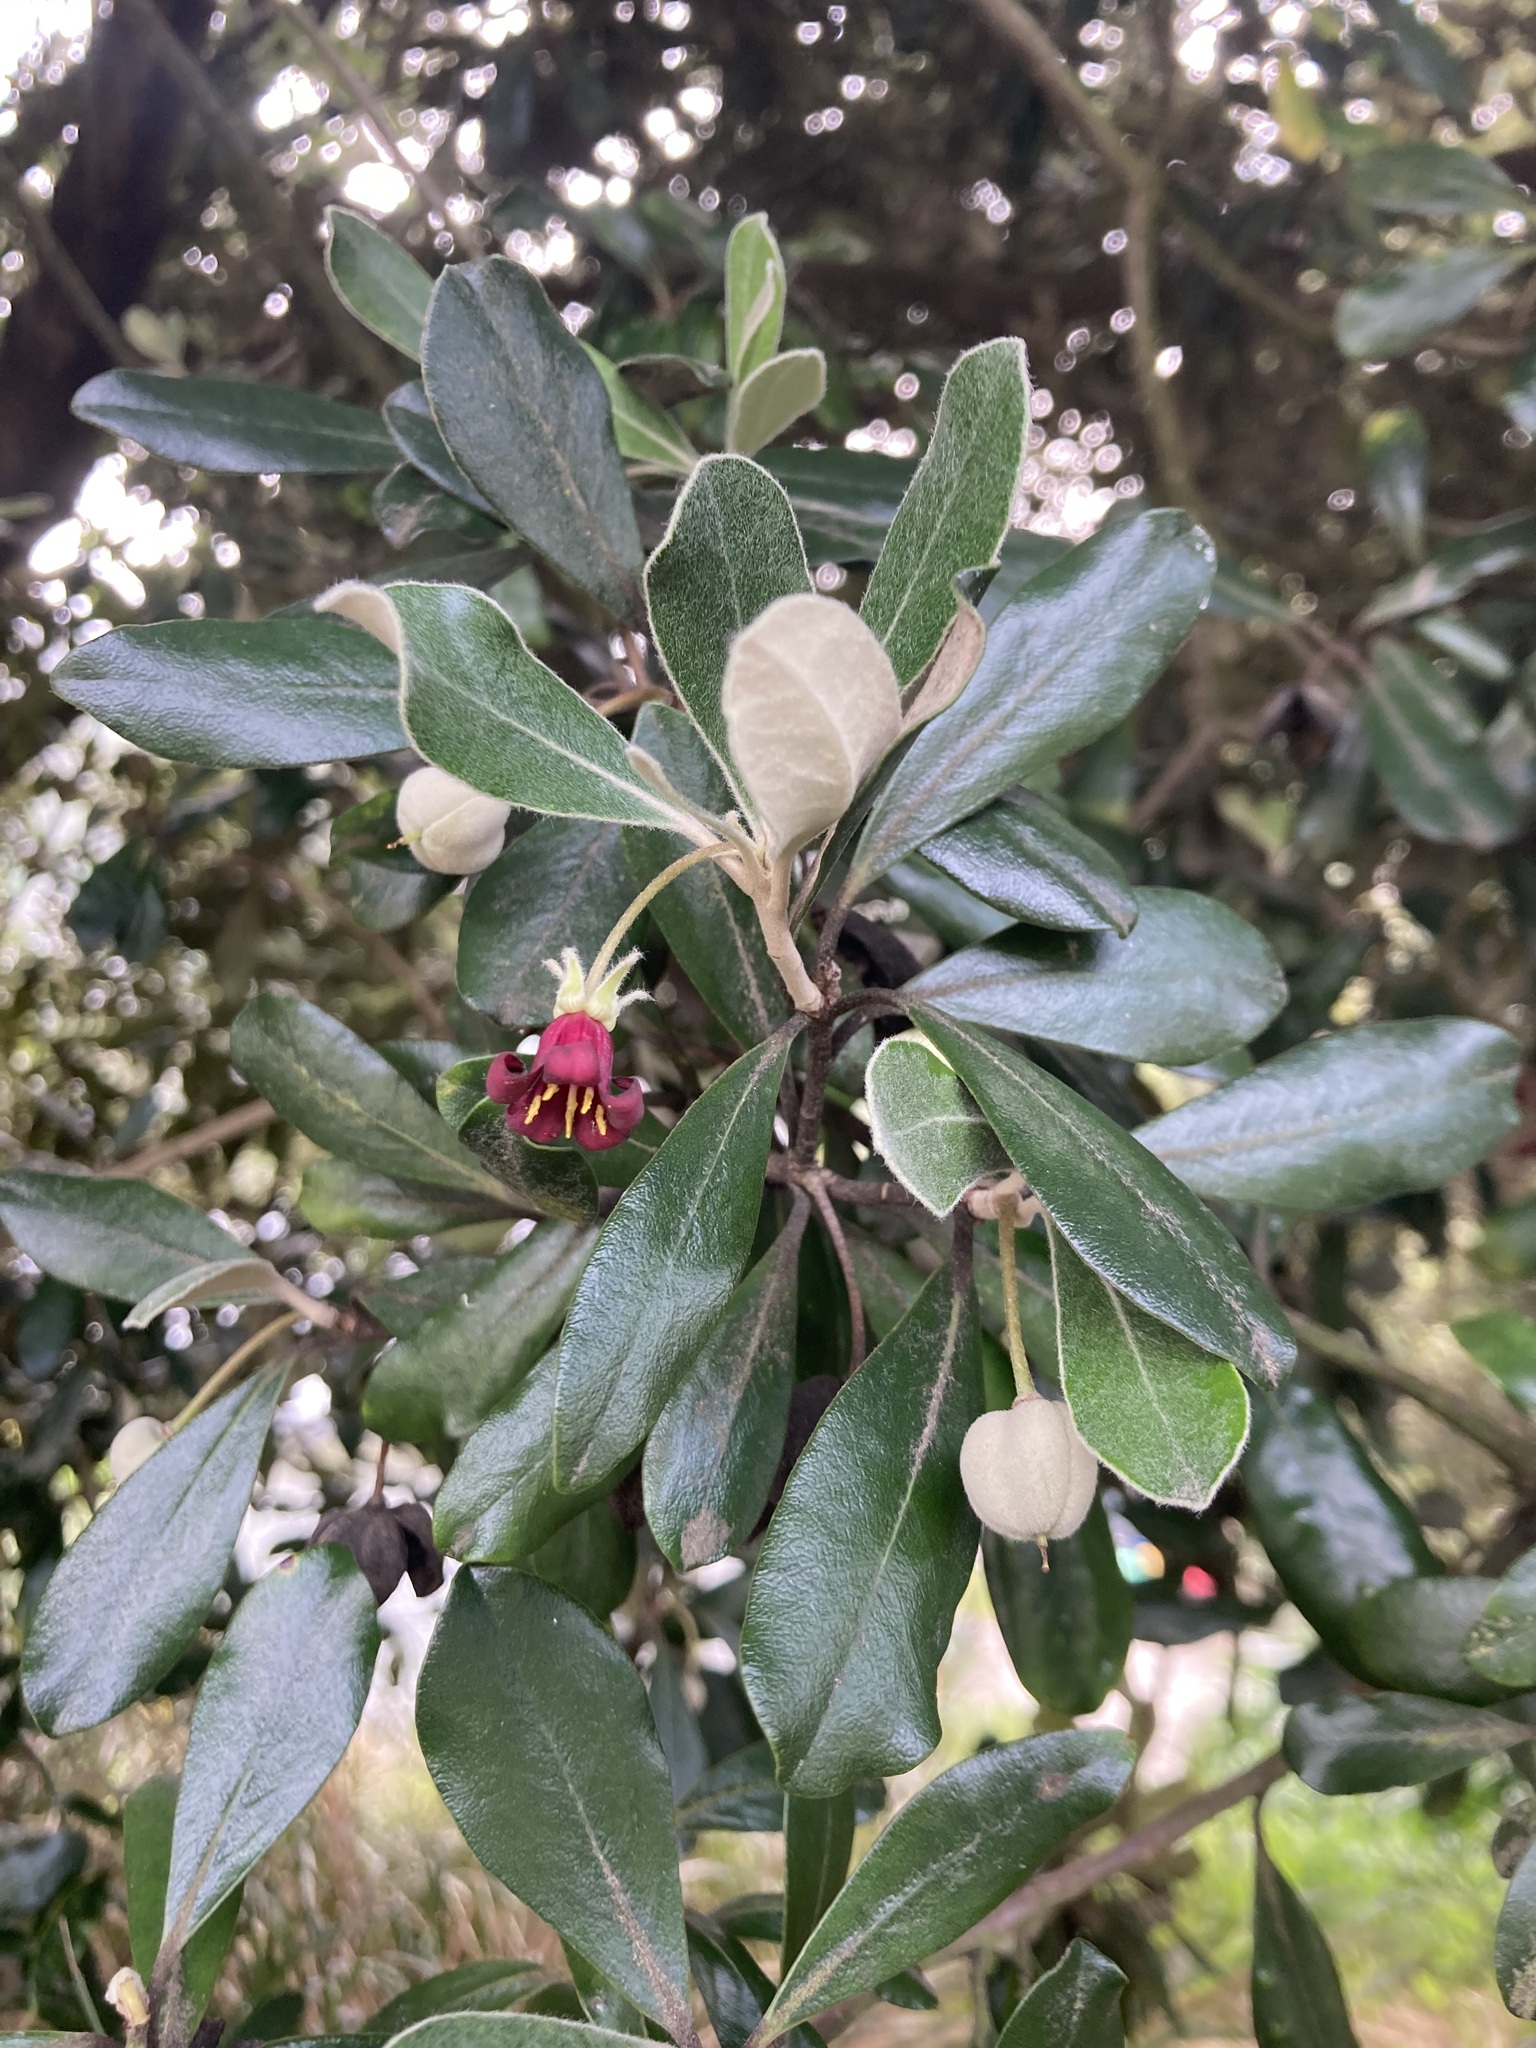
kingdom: Plantae
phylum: Tracheophyta
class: Magnoliopsida
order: Apiales
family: Pittosporaceae
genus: Pittosporum
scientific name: Pittosporum crassifolium
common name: Karo
